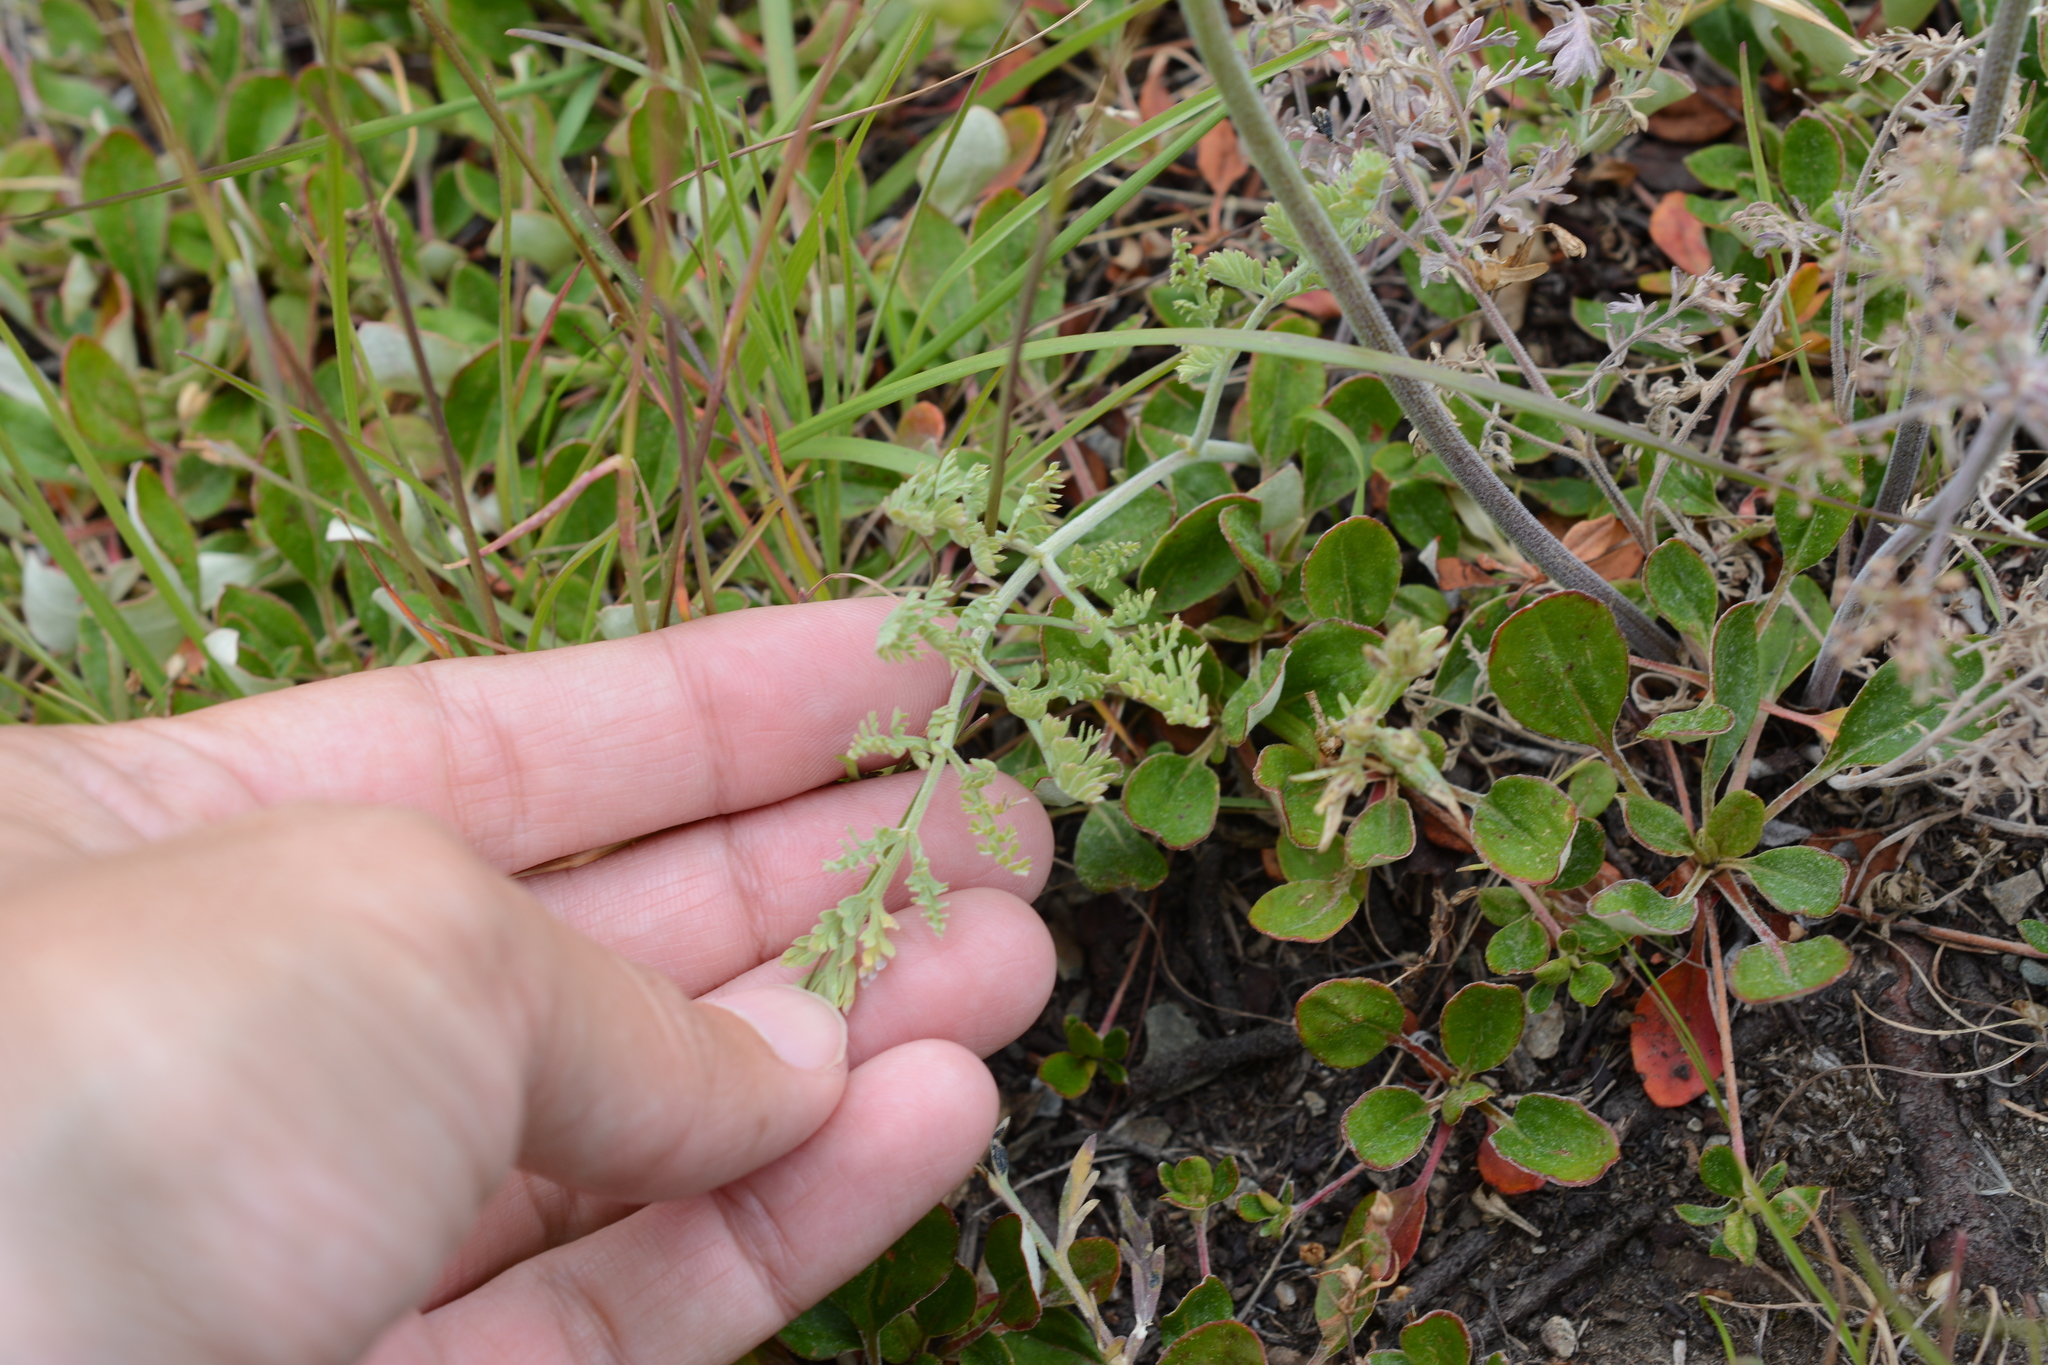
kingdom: Plantae
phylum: Tracheophyta
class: Magnoliopsida
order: Apiales
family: Apiaceae
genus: Lomatium
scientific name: Lomatium macrocarpum
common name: Big-seed biscuitroot
